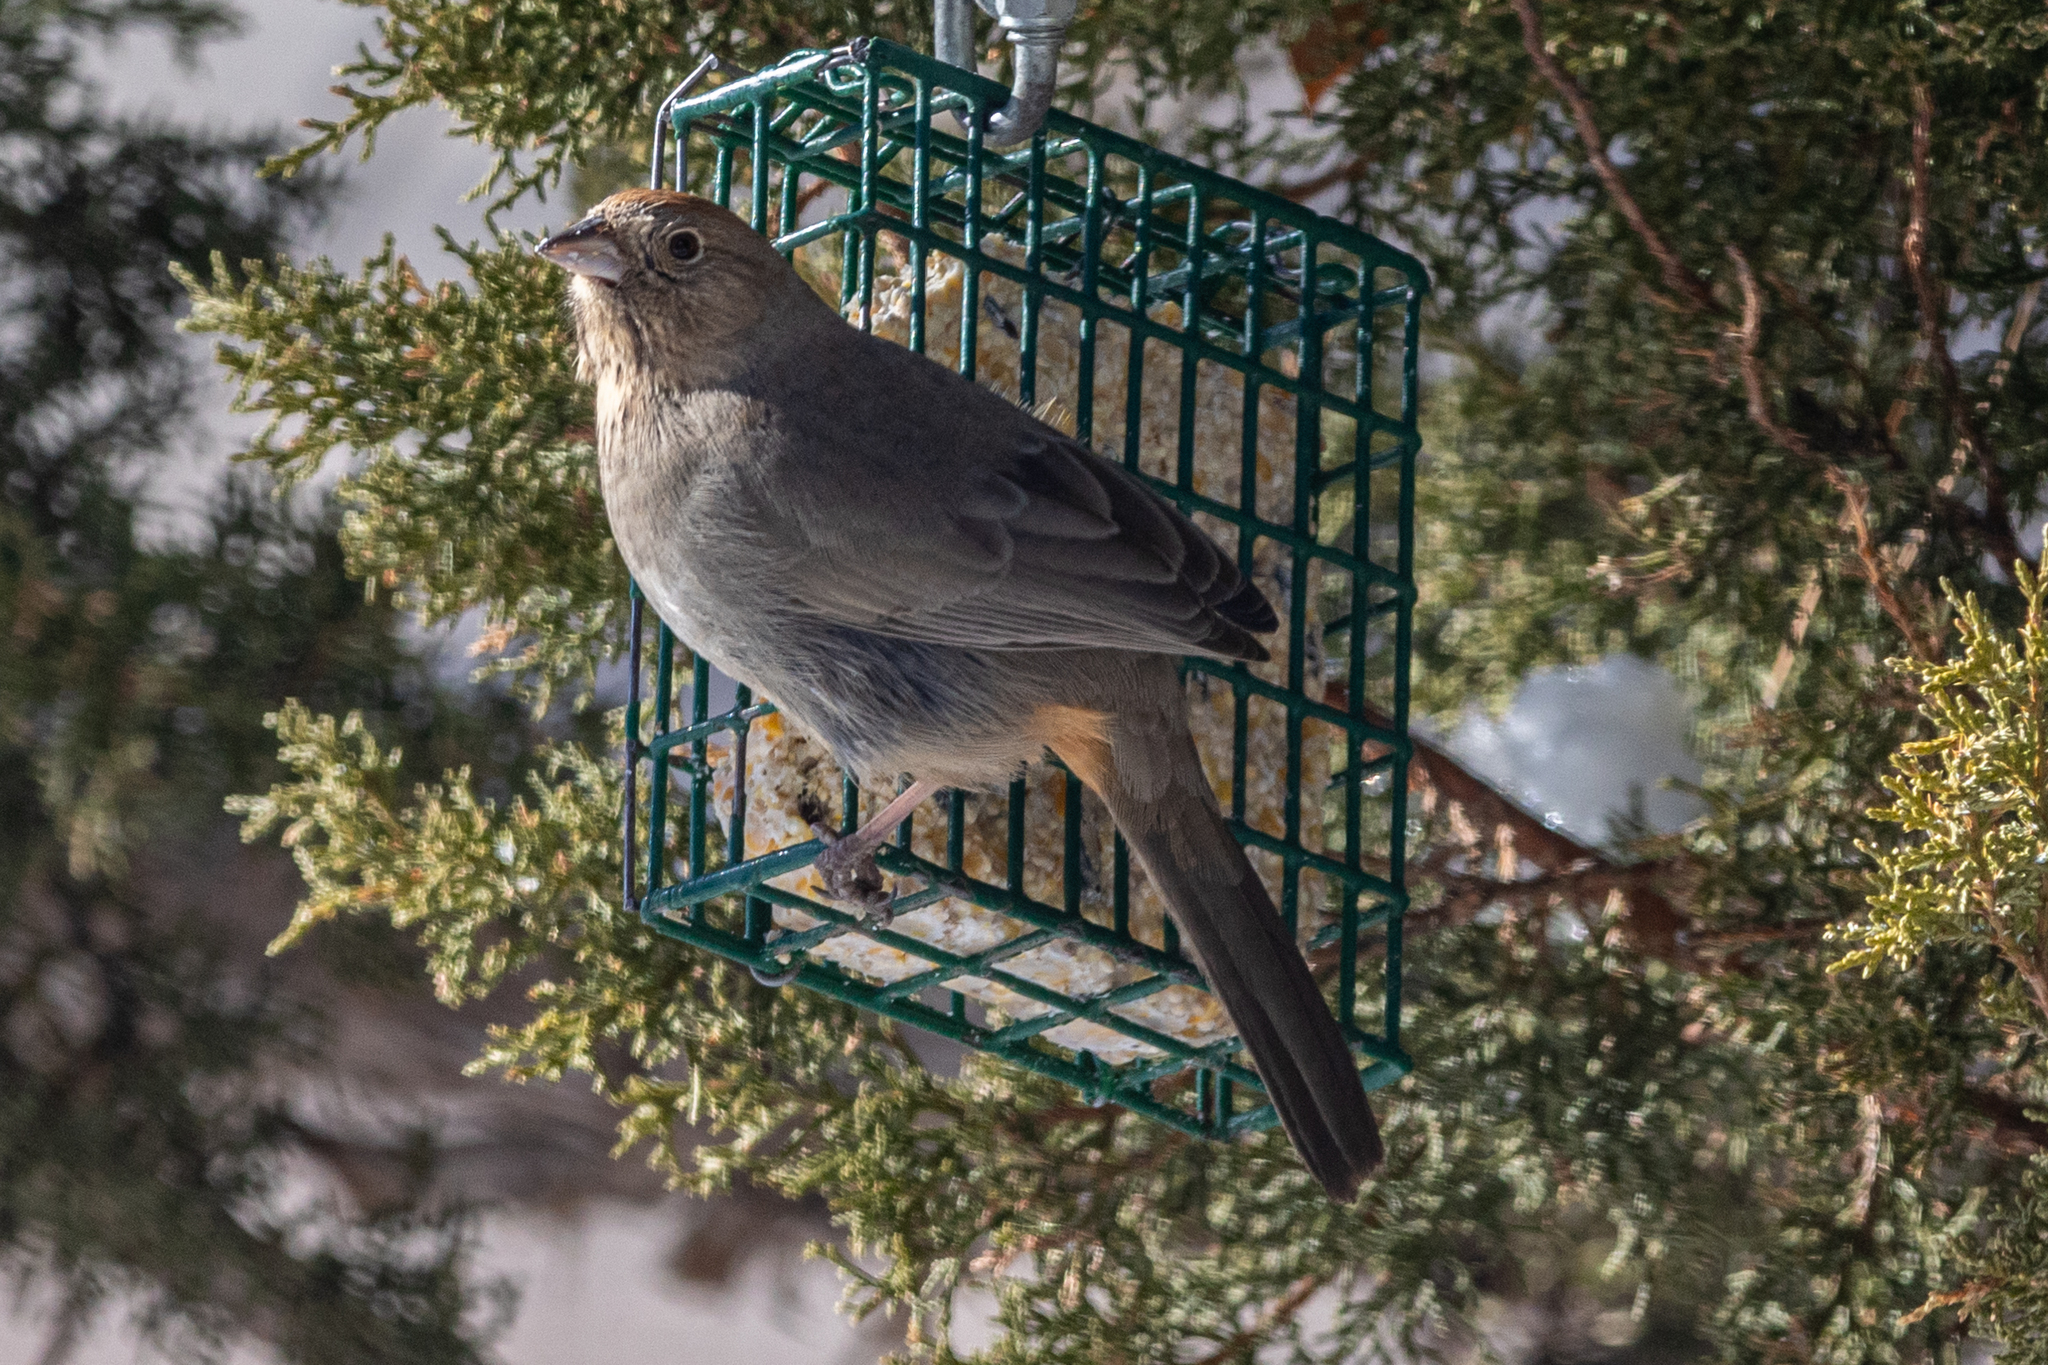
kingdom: Animalia
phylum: Chordata
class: Aves
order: Passeriformes
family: Passerellidae
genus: Melozone
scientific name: Melozone fusca
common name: Canyon towhee
